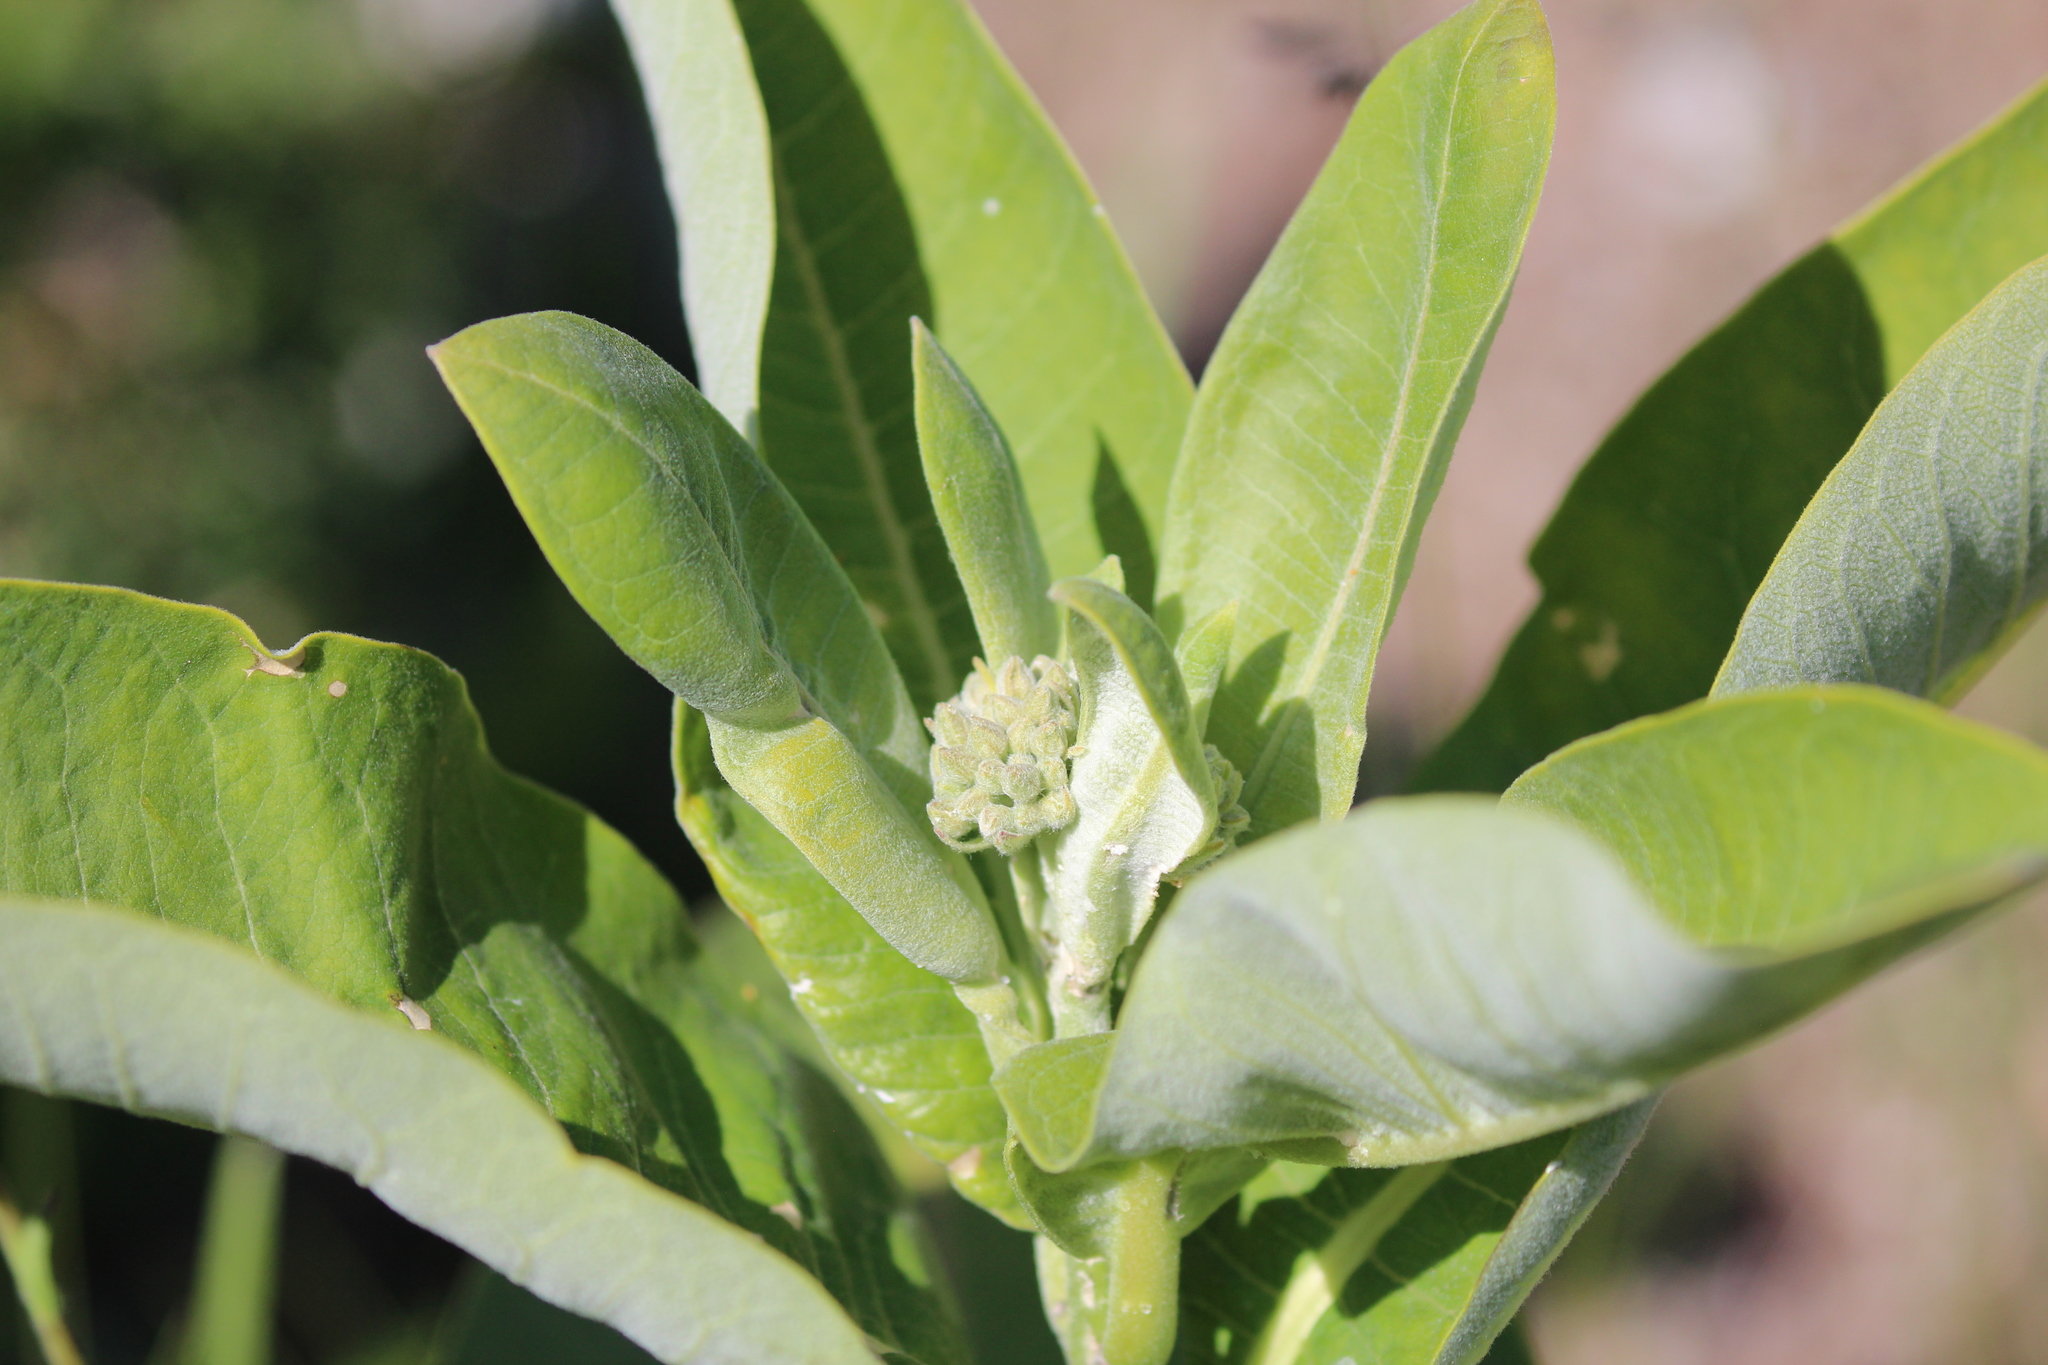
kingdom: Plantae
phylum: Tracheophyta
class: Magnoliopsida
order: Gentianales
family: Apocynaceae
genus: Asclepias
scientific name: Asclepias syriaca
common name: Common milkweed
